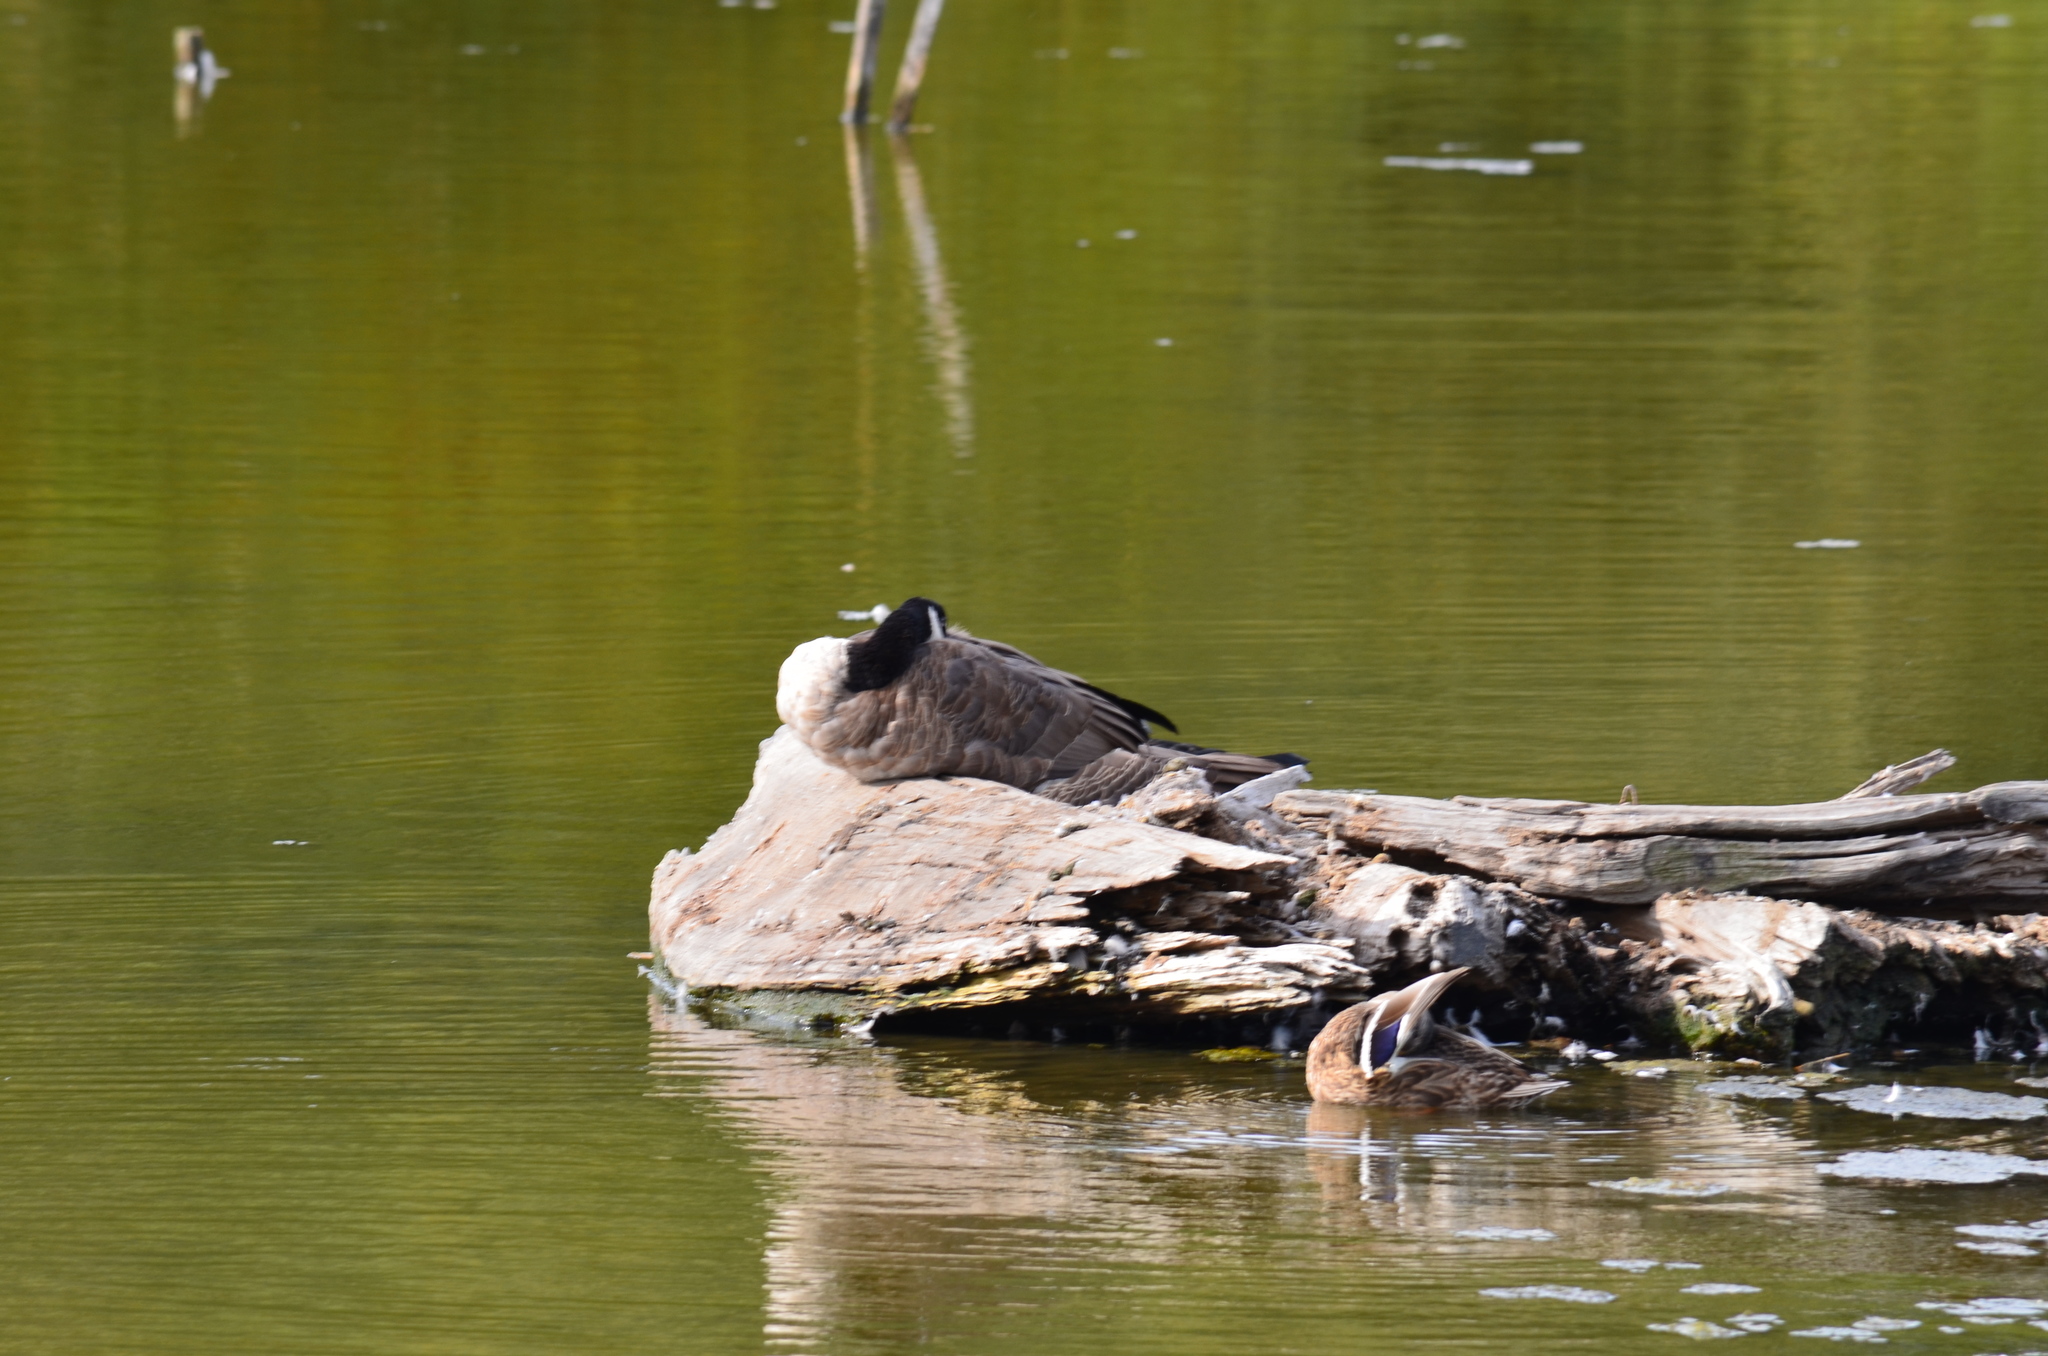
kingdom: Animalia
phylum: Chordata
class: Aves
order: Anseriformes
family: Anatidae
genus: Branta
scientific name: Branta canadensis
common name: Canada goose
